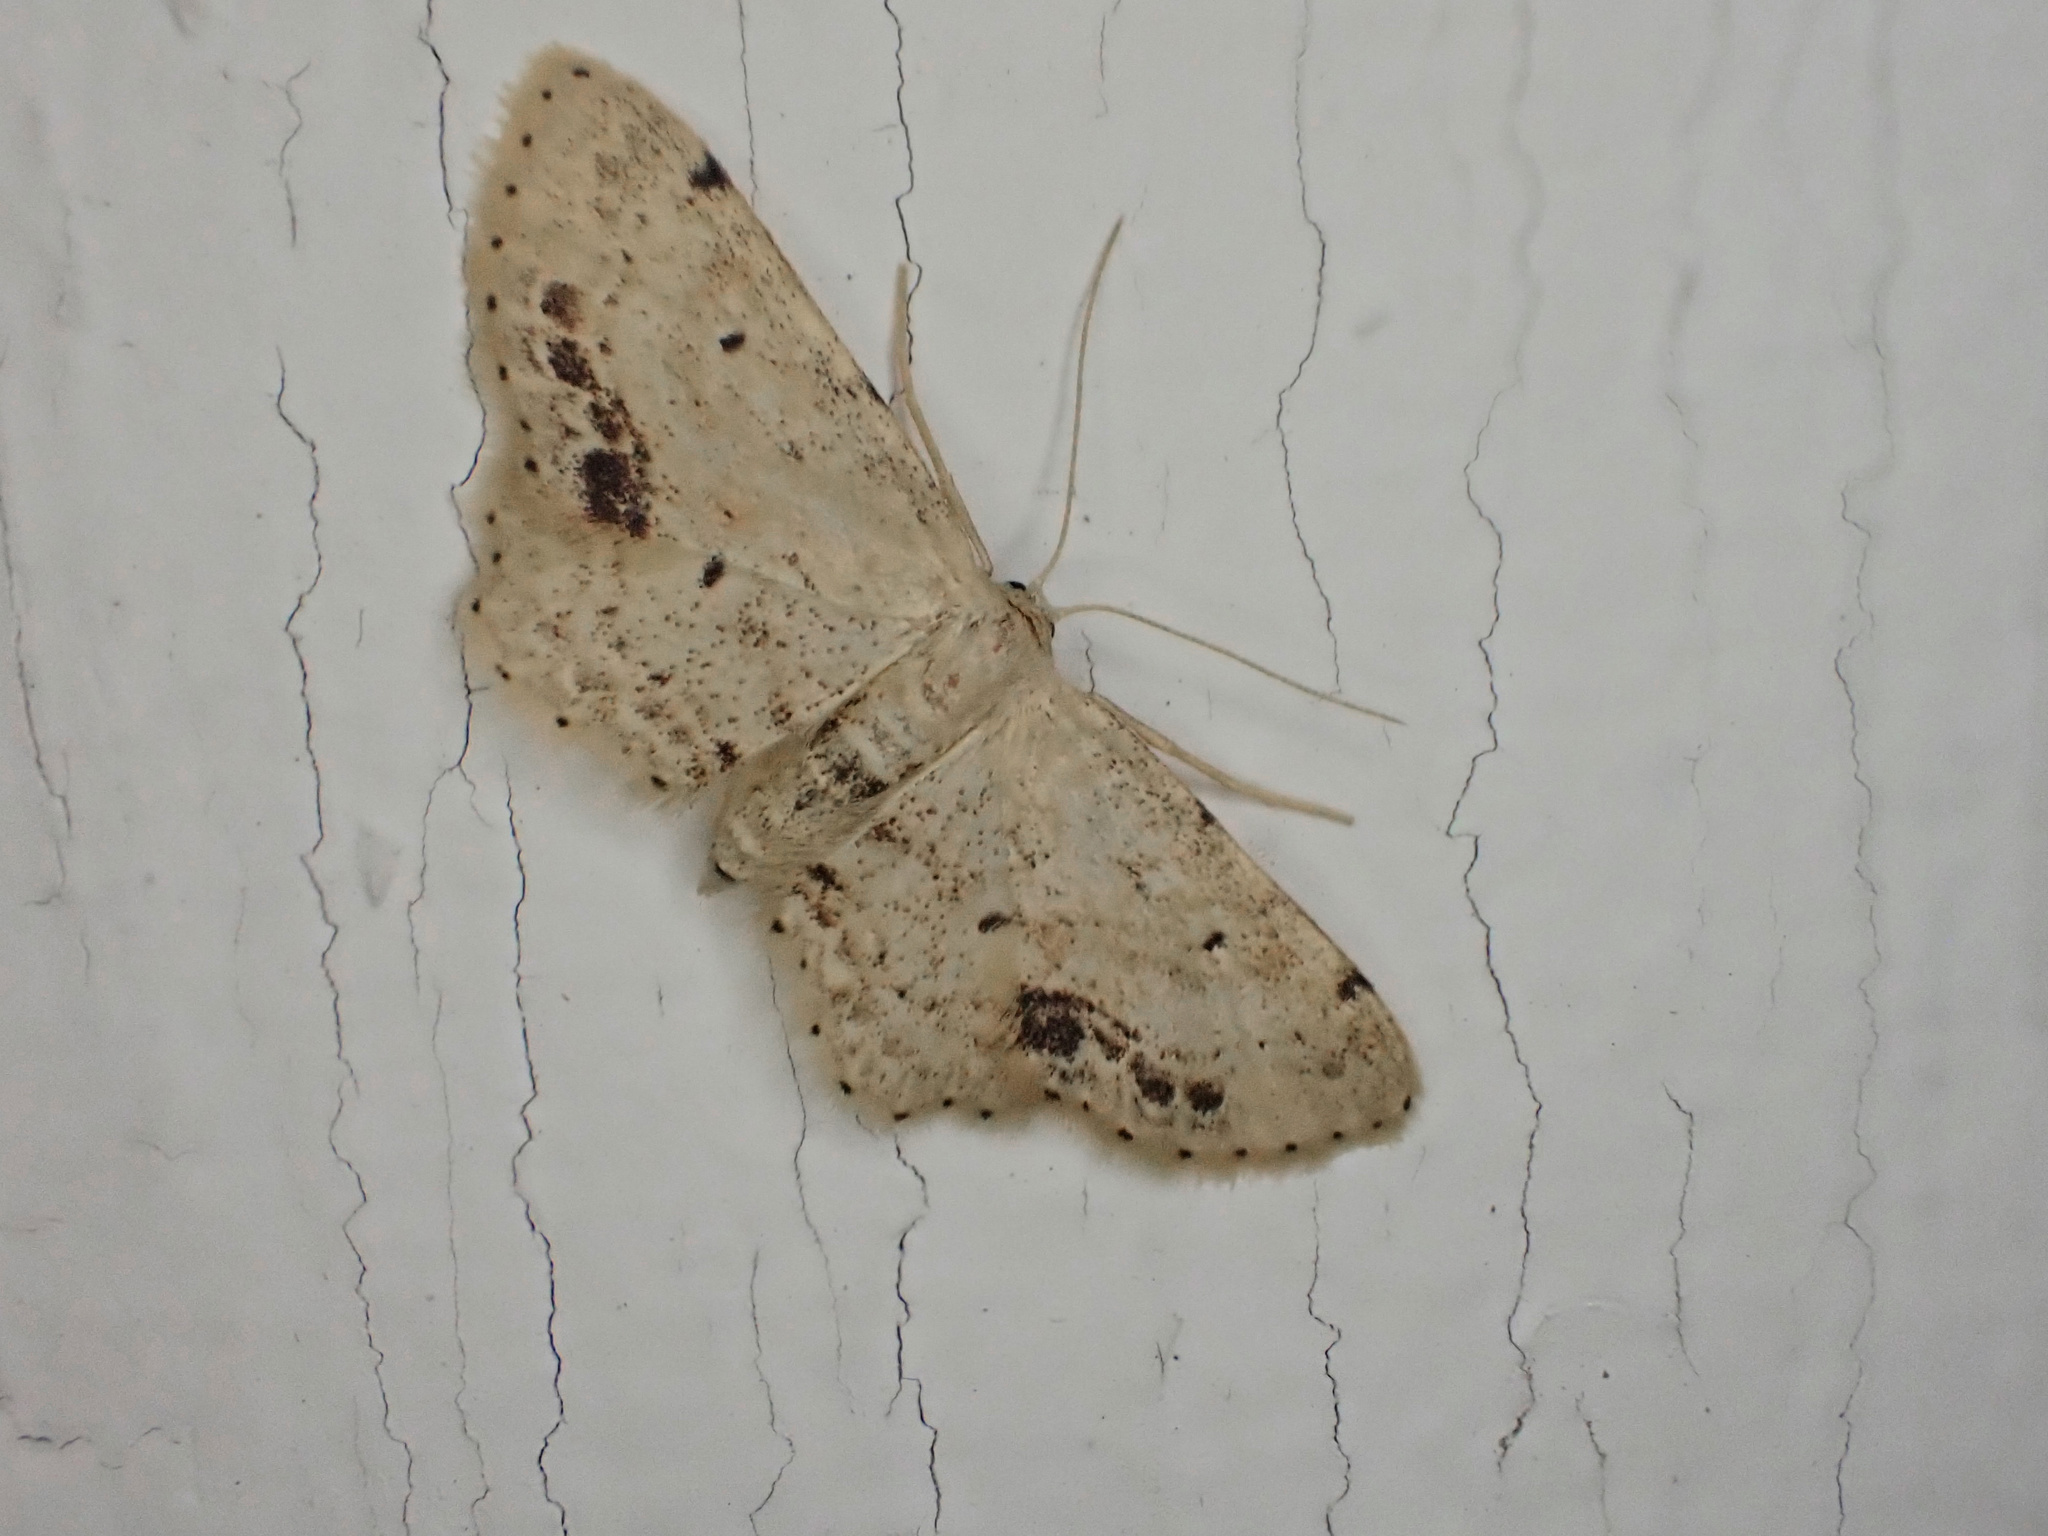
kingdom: Animalia
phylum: Arthropoda
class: Insecta
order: Lepidoptera
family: Geometridae
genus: Idaea
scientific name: Idaea dimidiata
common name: Single-dotted wave
